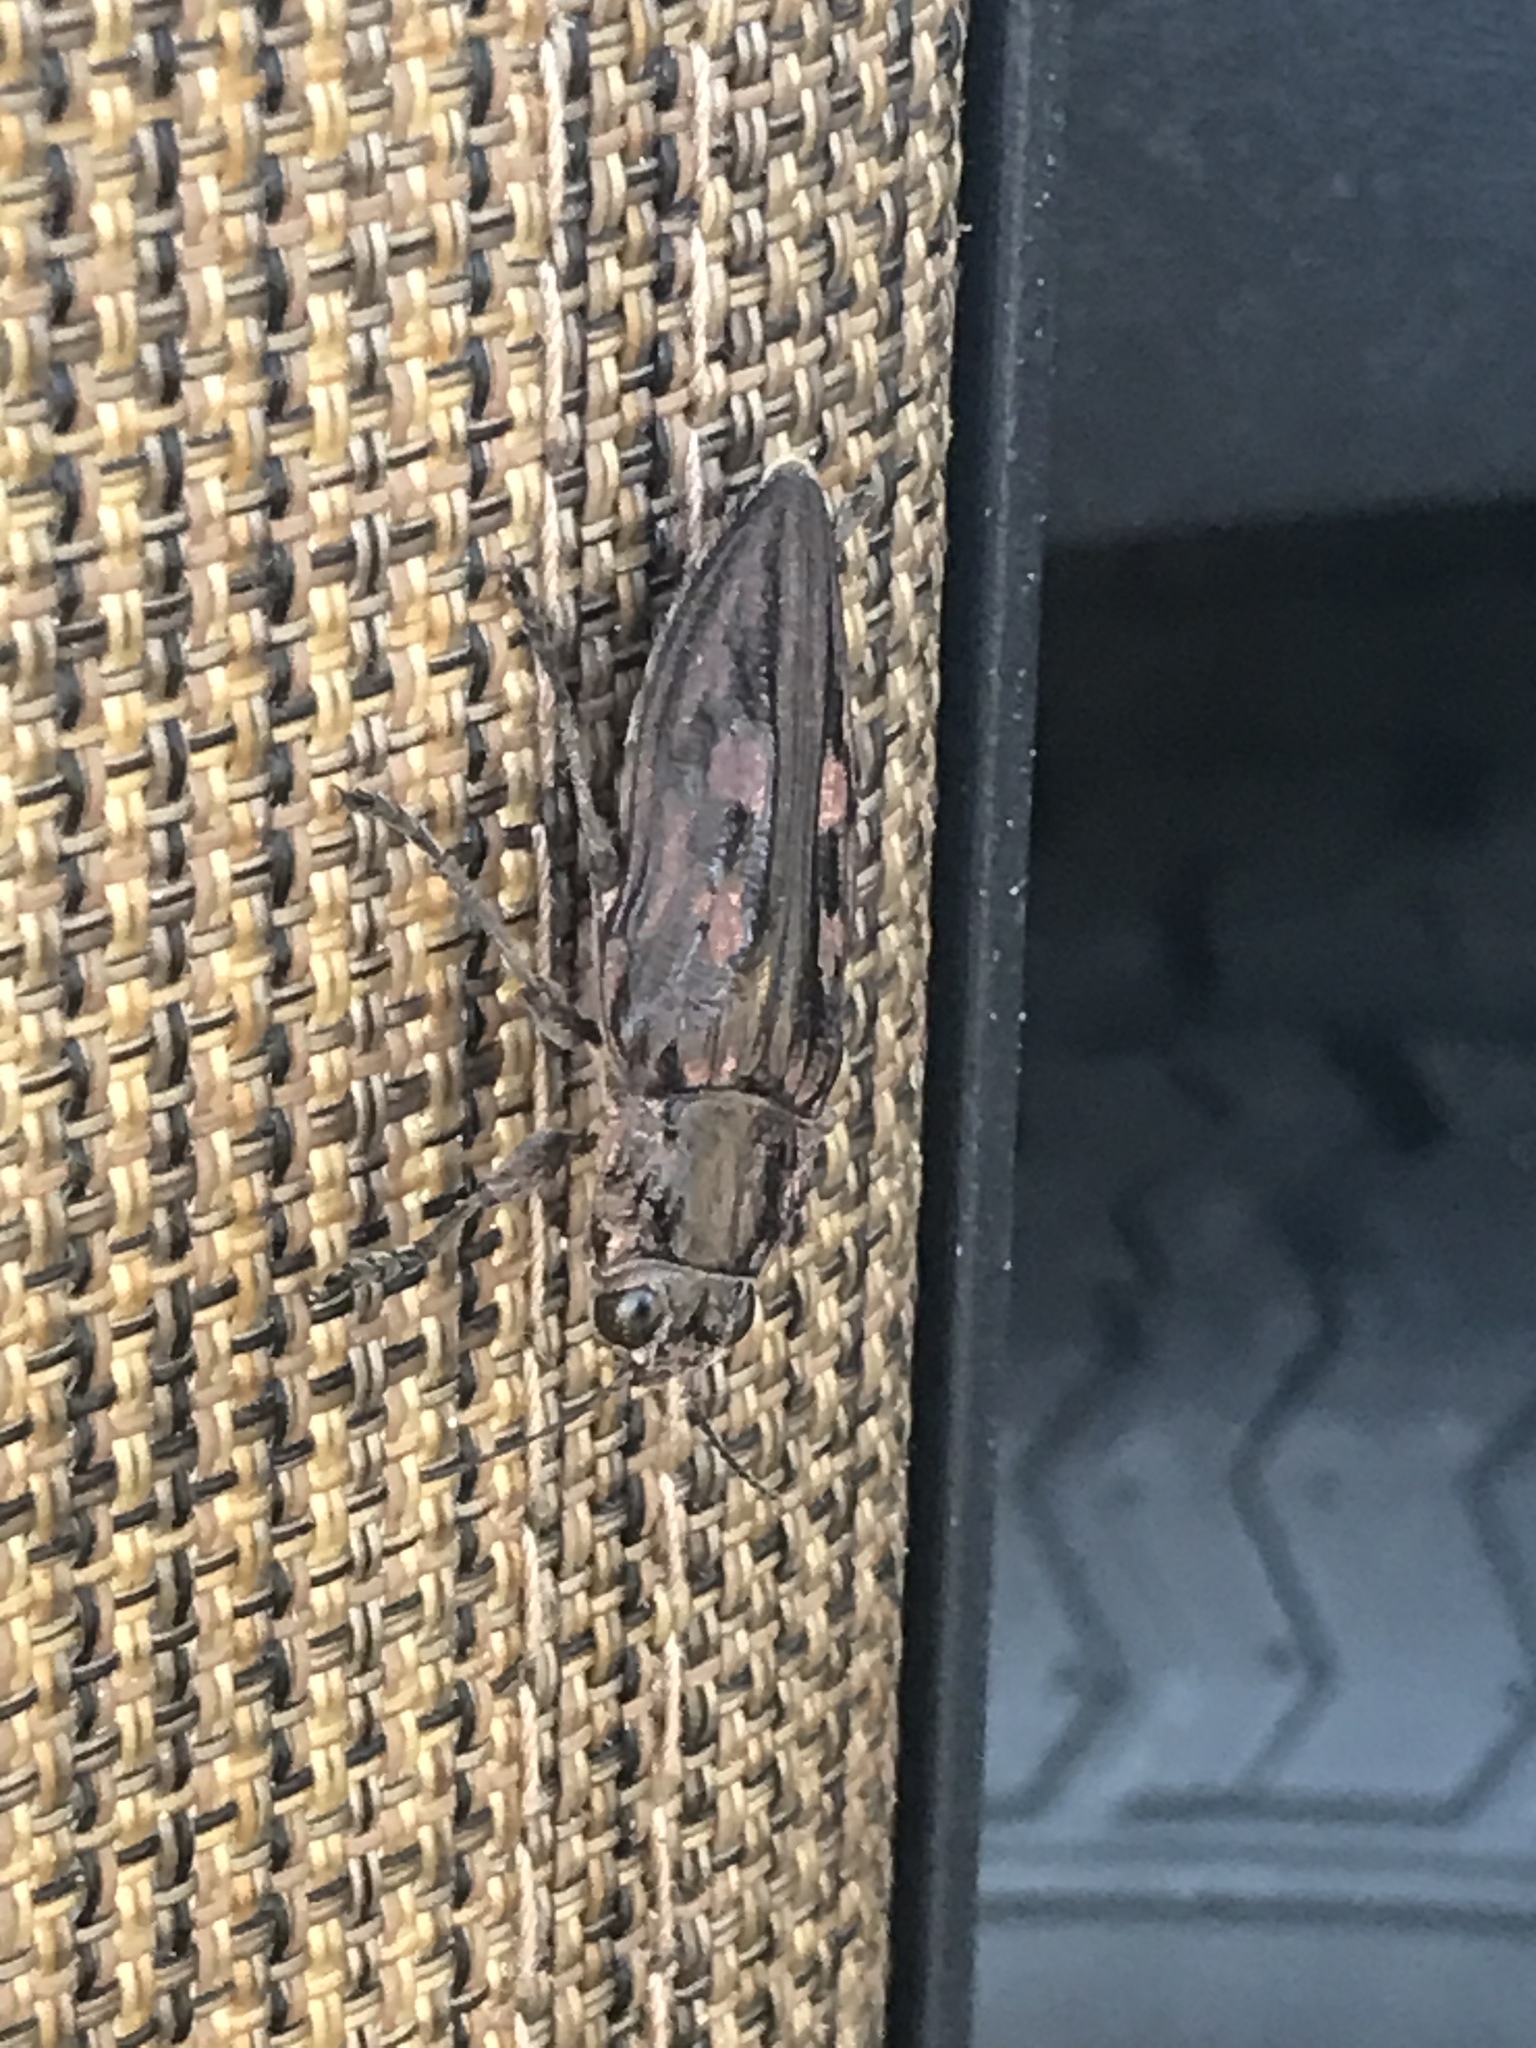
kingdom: Animalia
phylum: Arthropoda
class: Insecta
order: Coleoptera
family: Buprestidae
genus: Chalcophora
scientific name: Chalcophora virginiensis
